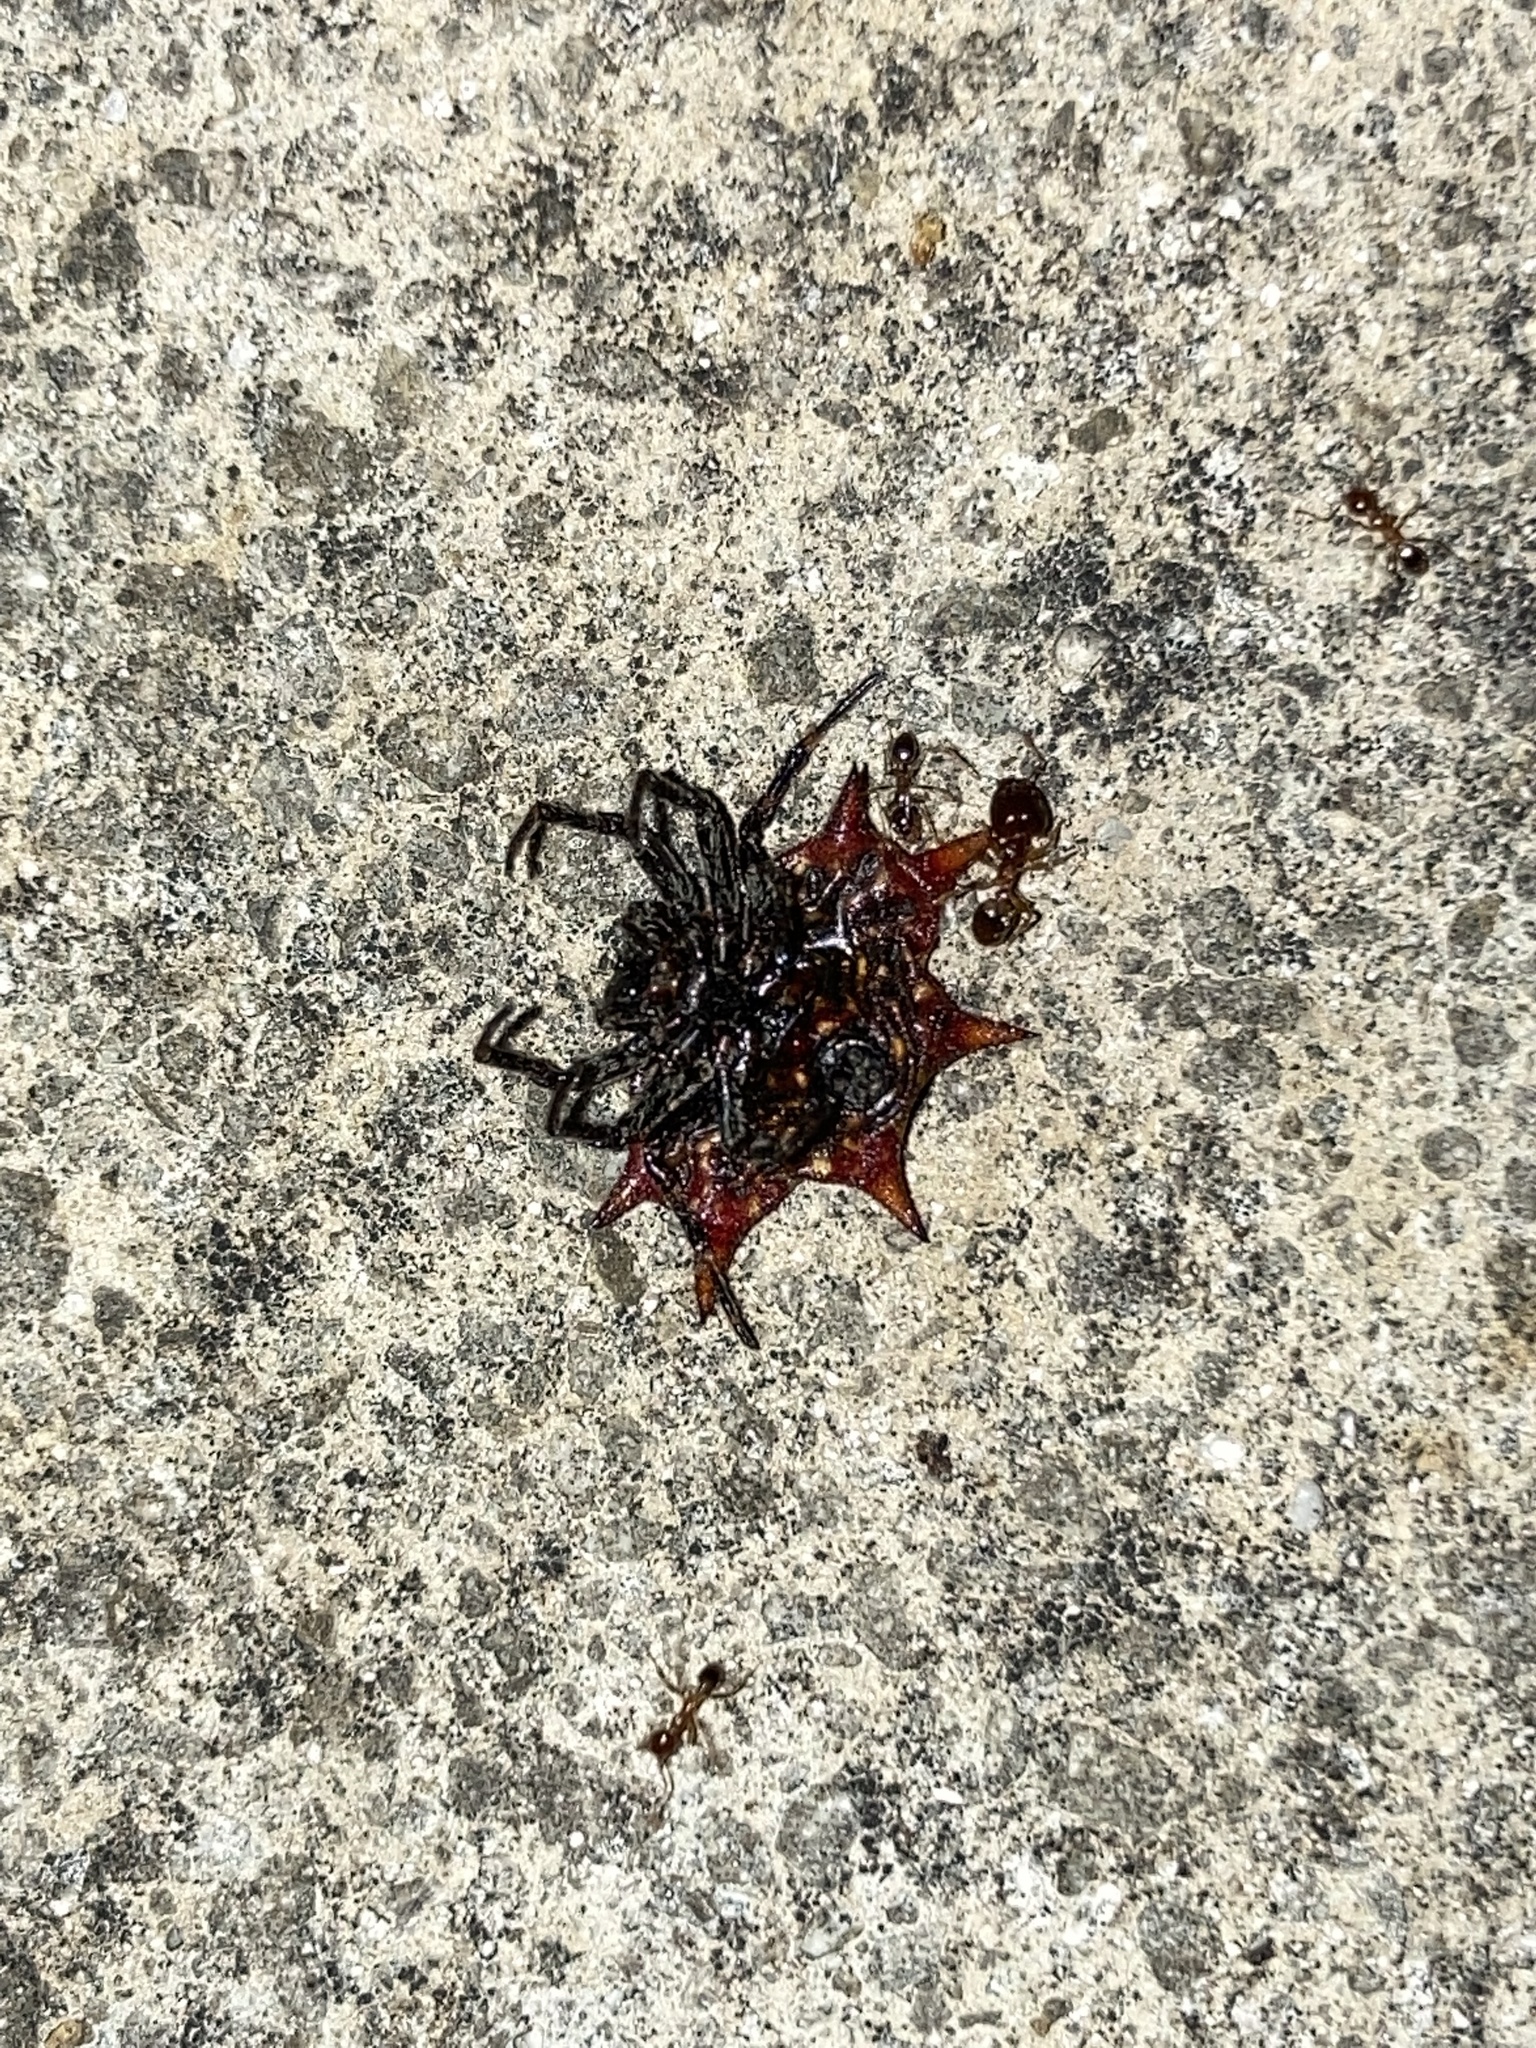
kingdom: Animalia
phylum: Arthropoda
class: Arachnida
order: Araneae
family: Araneidae
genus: Gasteracantha
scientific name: Gasteracantha cancriformis
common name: Orb weavers
